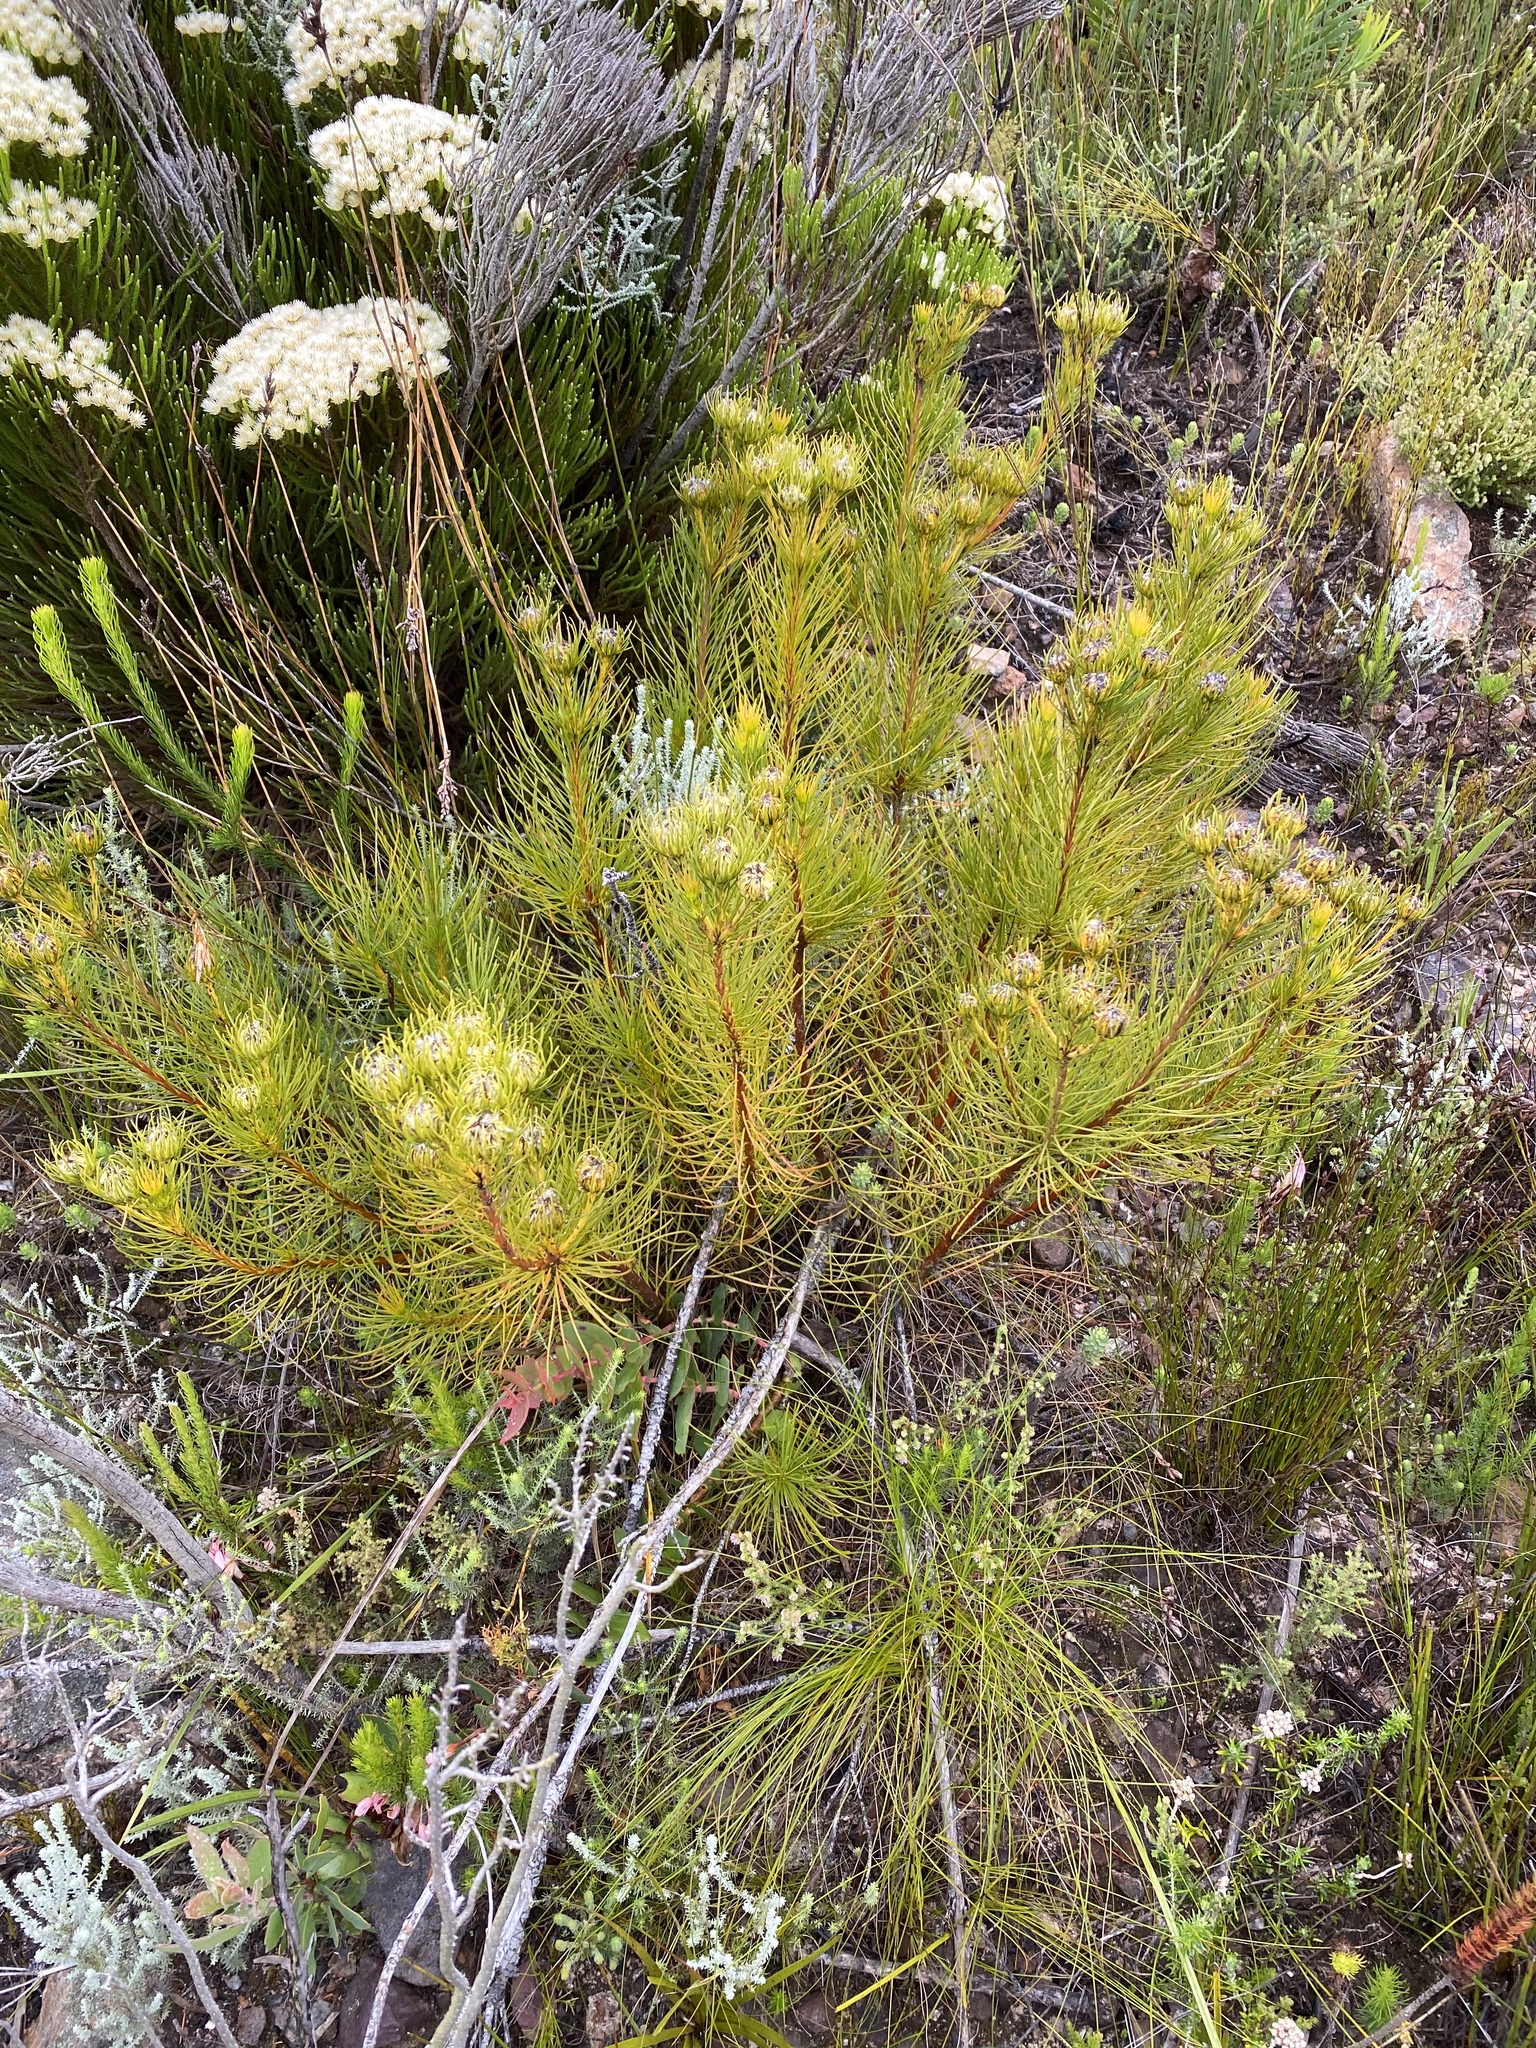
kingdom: Plantae
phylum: Tracheophyta
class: Magnoliopsida
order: Proteales
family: Proteaceae
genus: Aulax
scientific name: Aulax pallasia
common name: Needle-leaf featherbush
